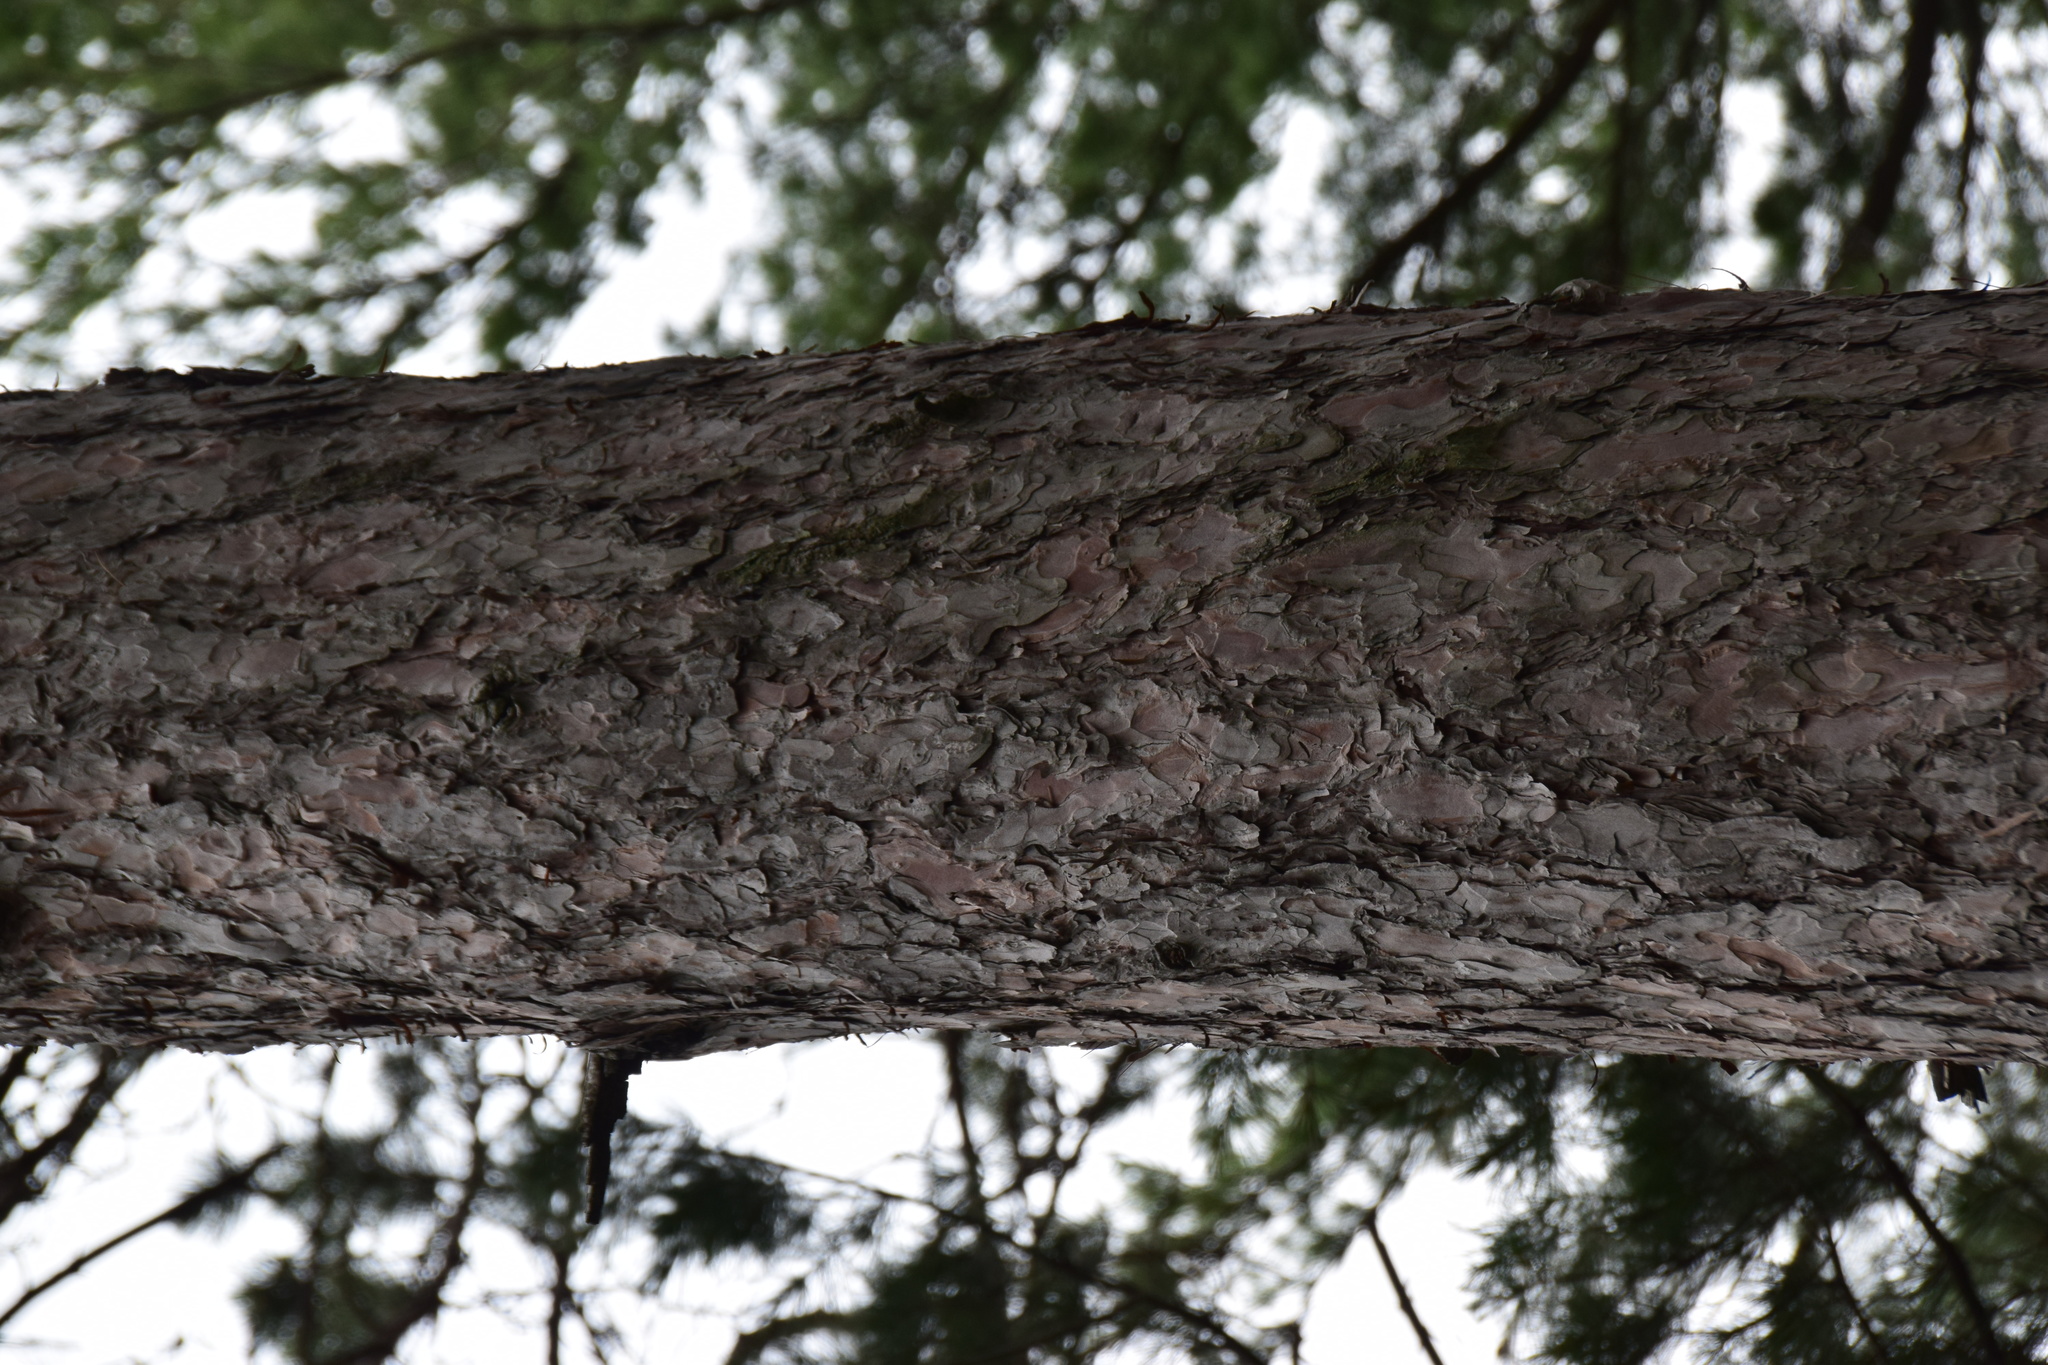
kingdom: Plantae
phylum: Tracheophyta
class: Pinopsida
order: Pinales
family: Pinaceae
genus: Pinus
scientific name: Pinus resinosa
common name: Norway pine
